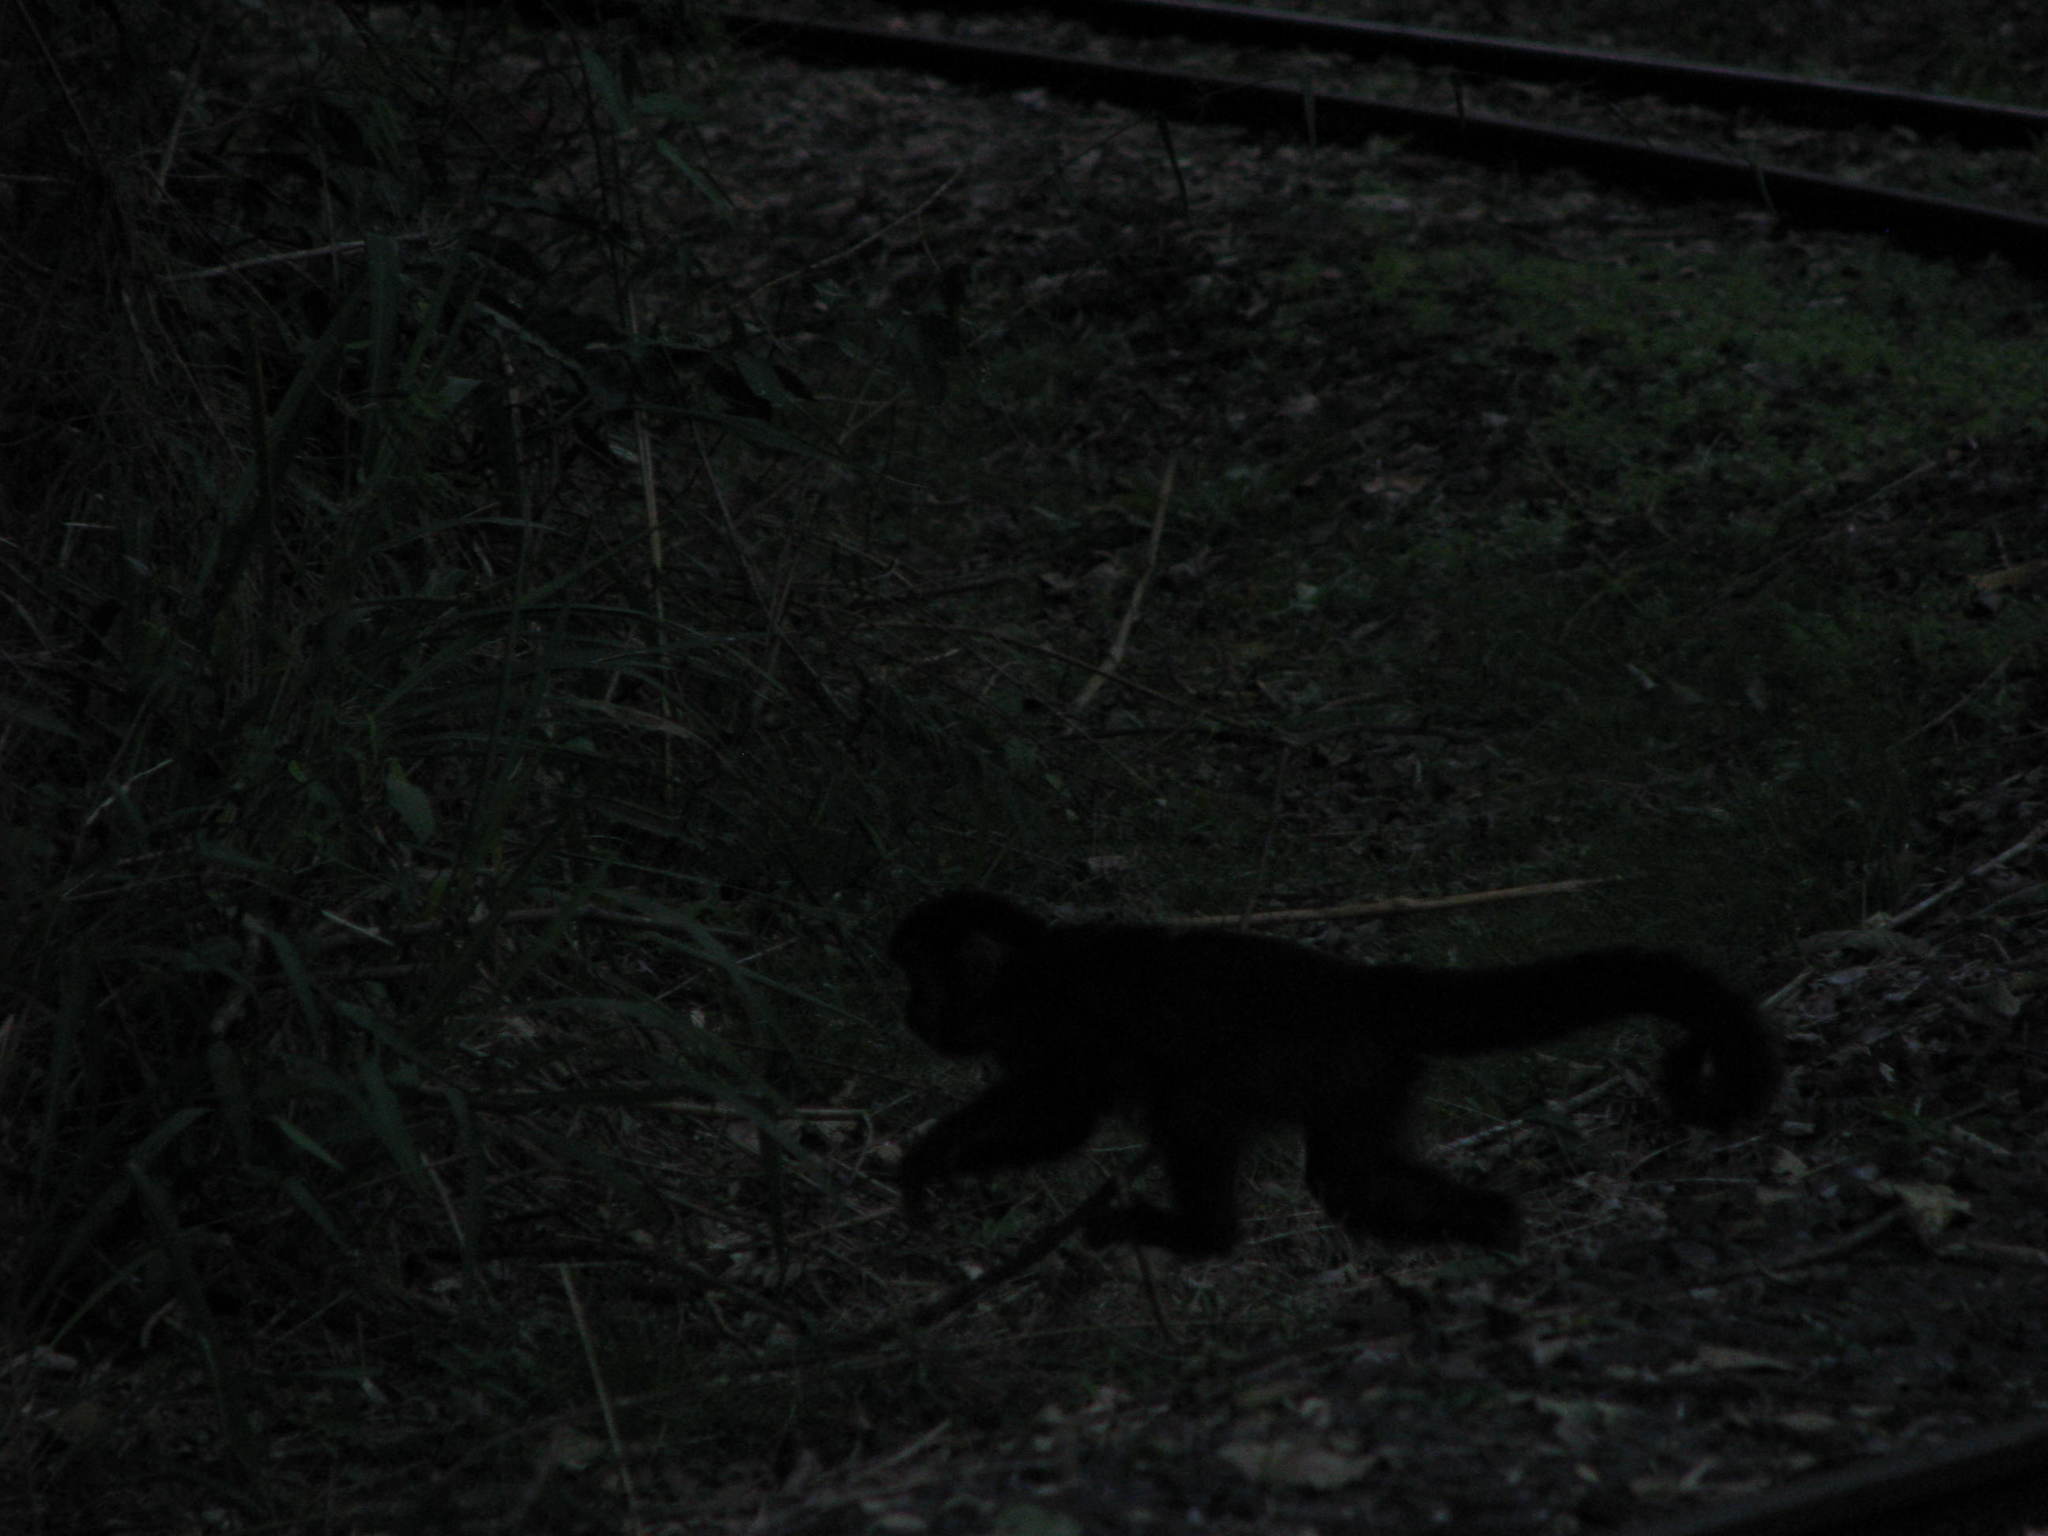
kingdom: Animalia
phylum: Chordata
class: Mammalia
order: Primates
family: Cebidae
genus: Sapajus
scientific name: Sapajus nigritus
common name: Black capuchin
